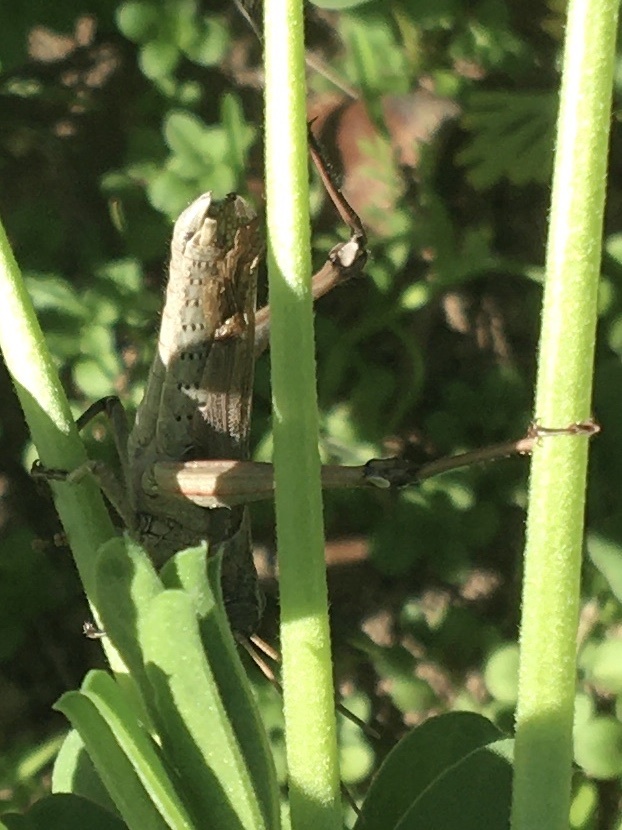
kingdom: Animalia
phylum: Arthropoda
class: Insecta
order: Orthoptera
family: Acrididae
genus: Schistocerca
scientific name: Schistocerca nitens
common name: Vagrant grasshopper
